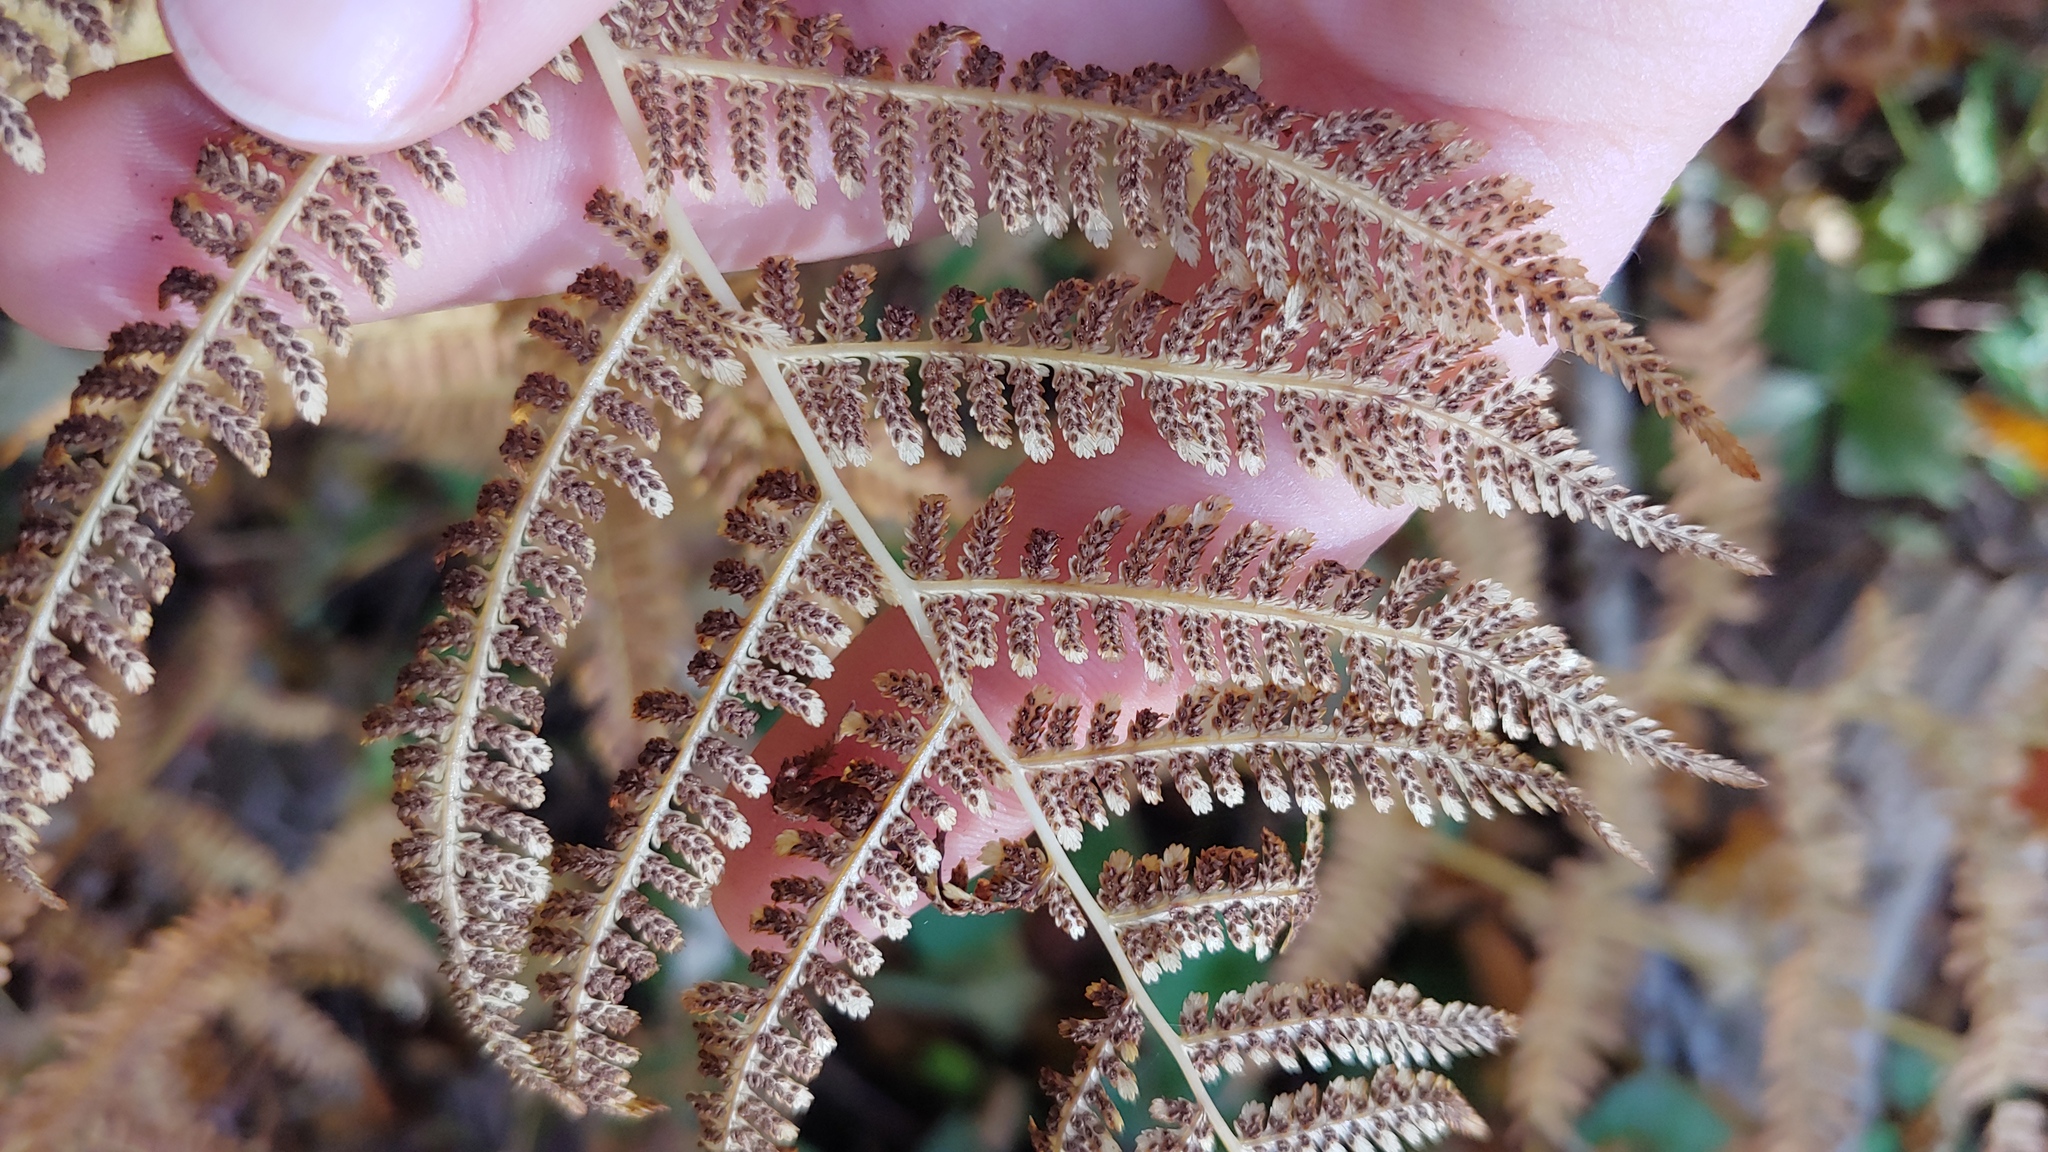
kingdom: Plantae
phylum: Tracheophyta
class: Polypodiopsida
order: Polypodiales
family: Athyriaceae
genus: Athyrium
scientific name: Athyrium angustum
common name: Northern lady fern
